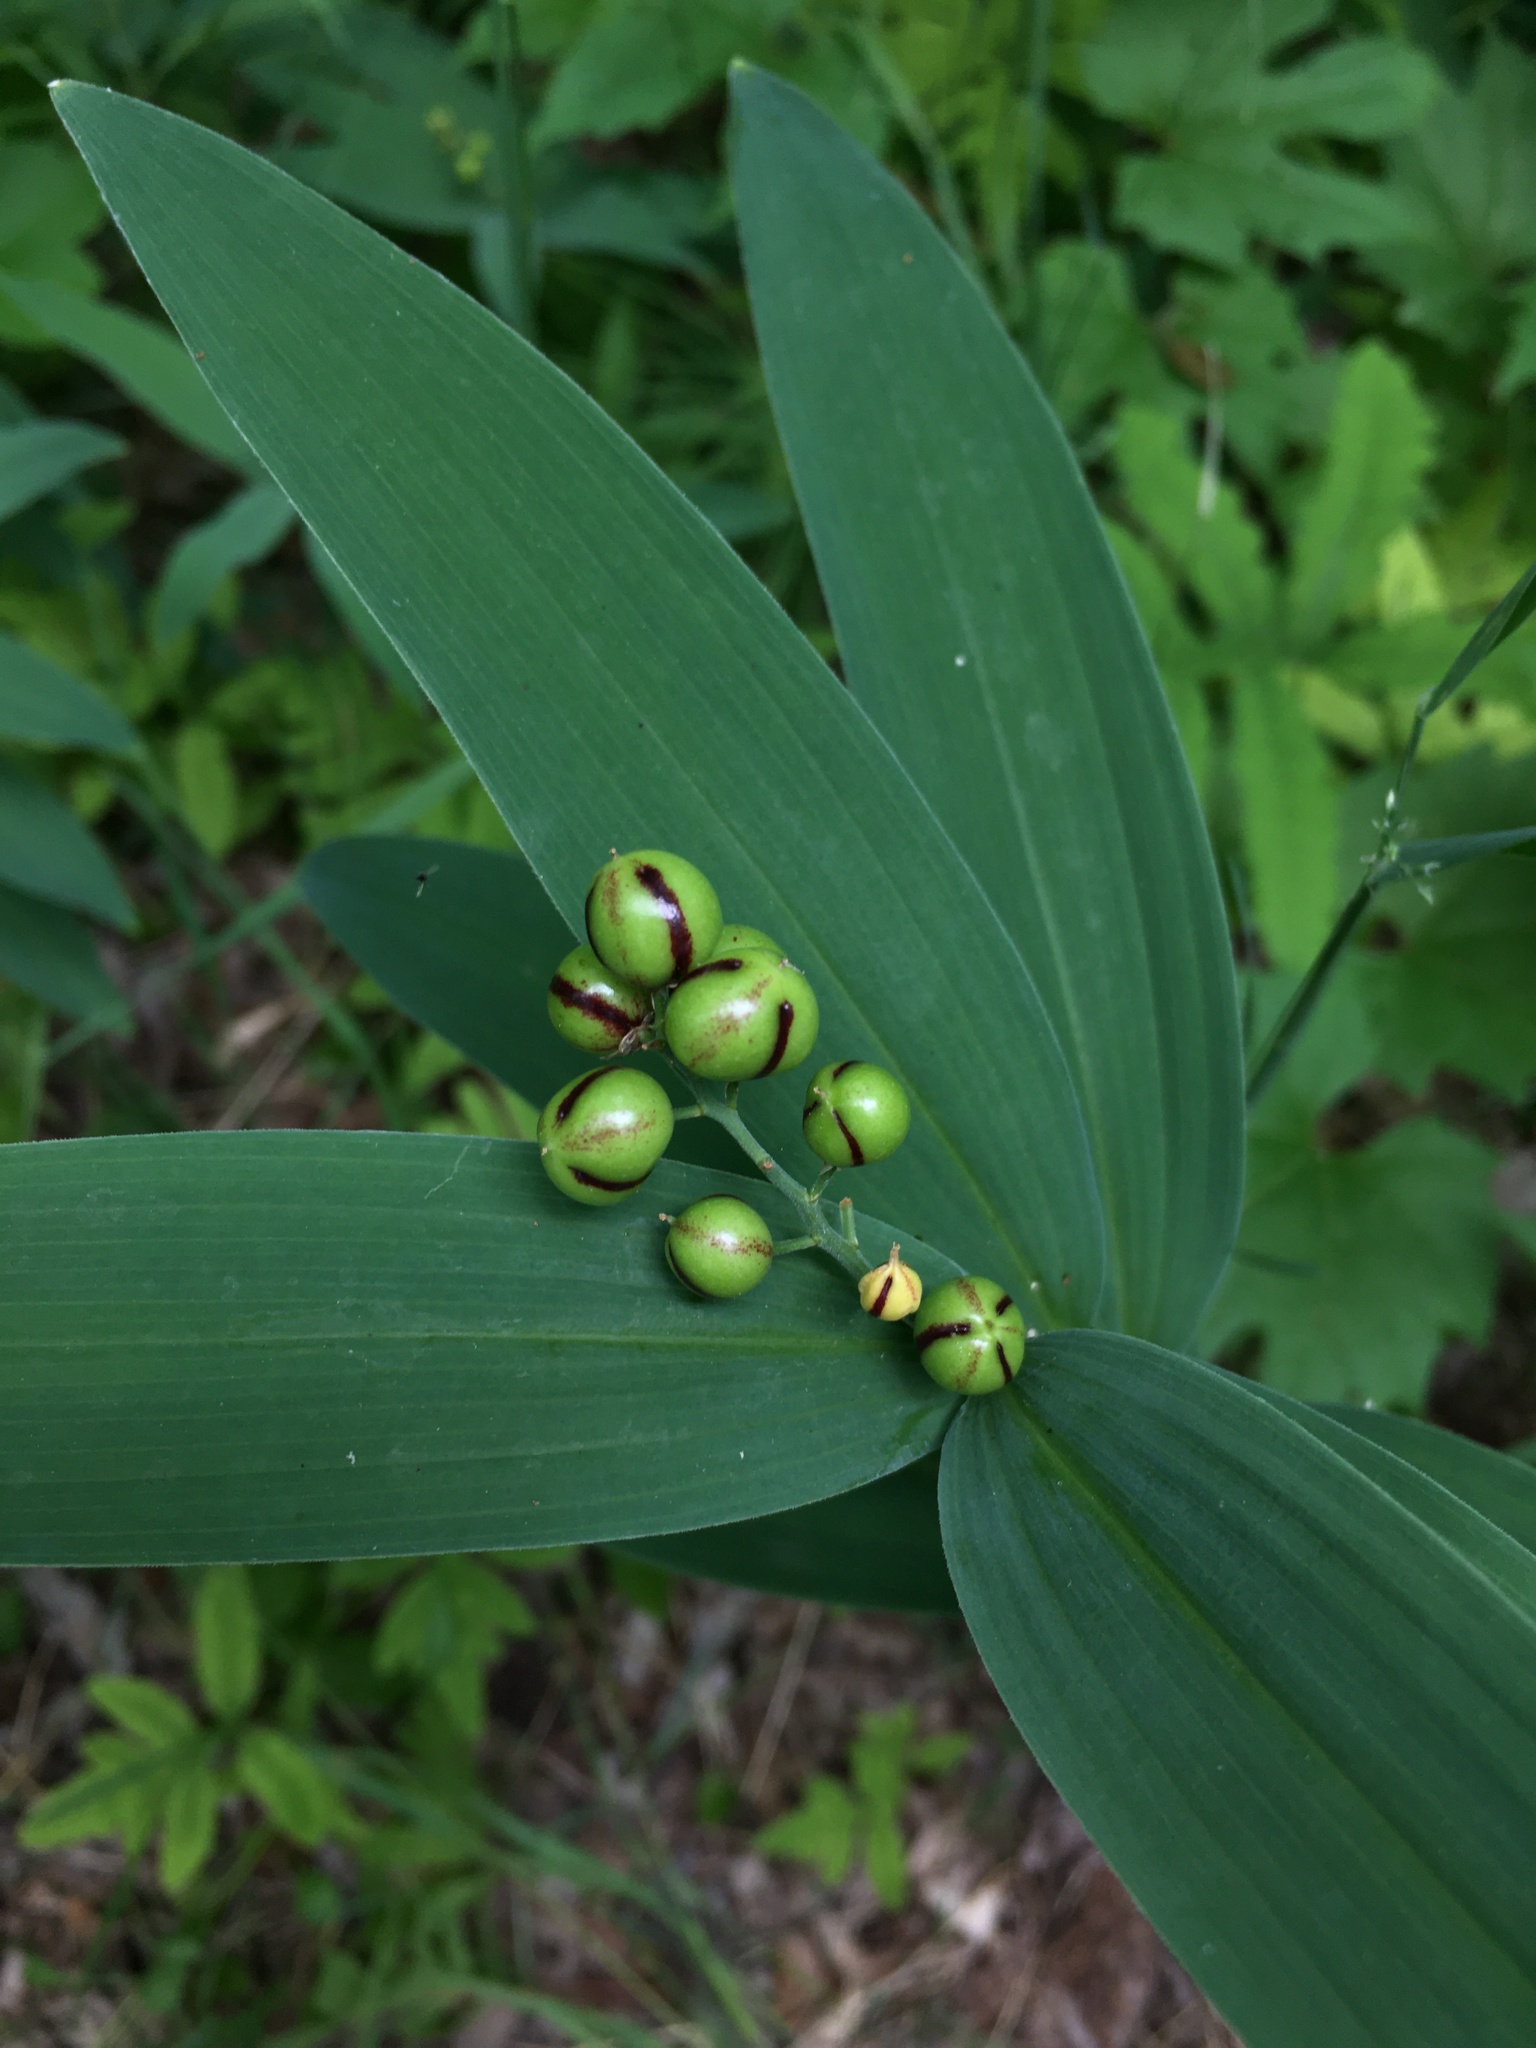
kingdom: Plantae
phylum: Tracheophyta
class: Liliopsida
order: Asparagales
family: Asparagaceae
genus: Maianthemum
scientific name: Maianthemum stellatum
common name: Little false solomon's seal
